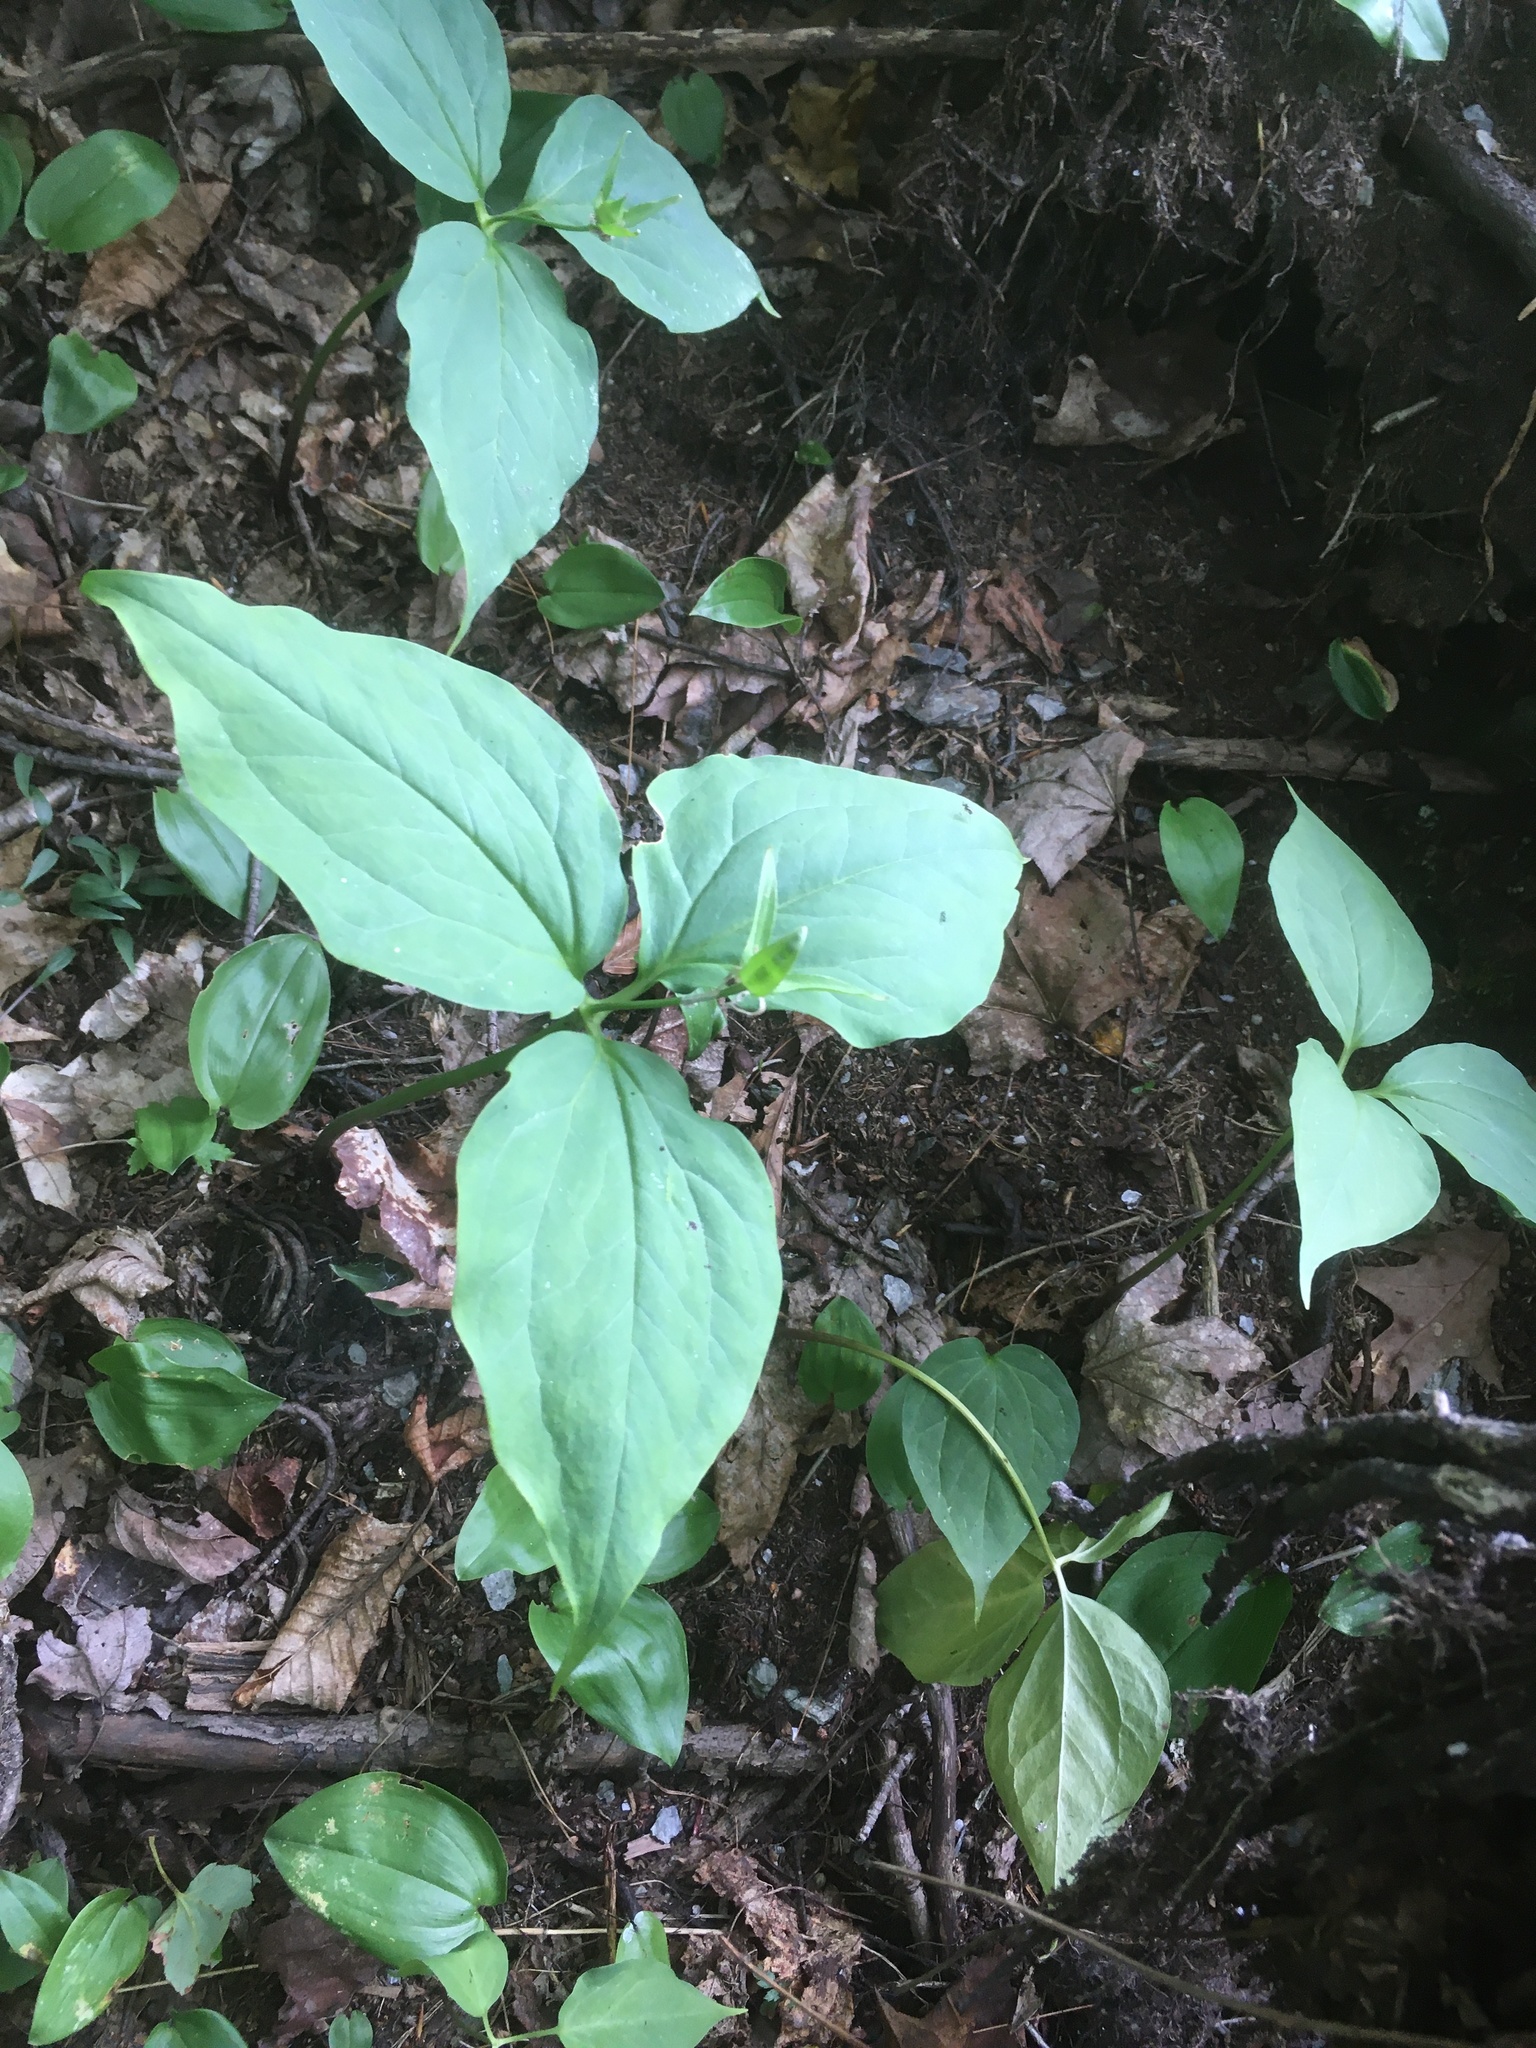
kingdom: Plantae
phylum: Tracheophyta
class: Liliopsida
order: Liliales
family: Melanthiaceae
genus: Trillium
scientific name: Trillium undulatum
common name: Paint trillium
